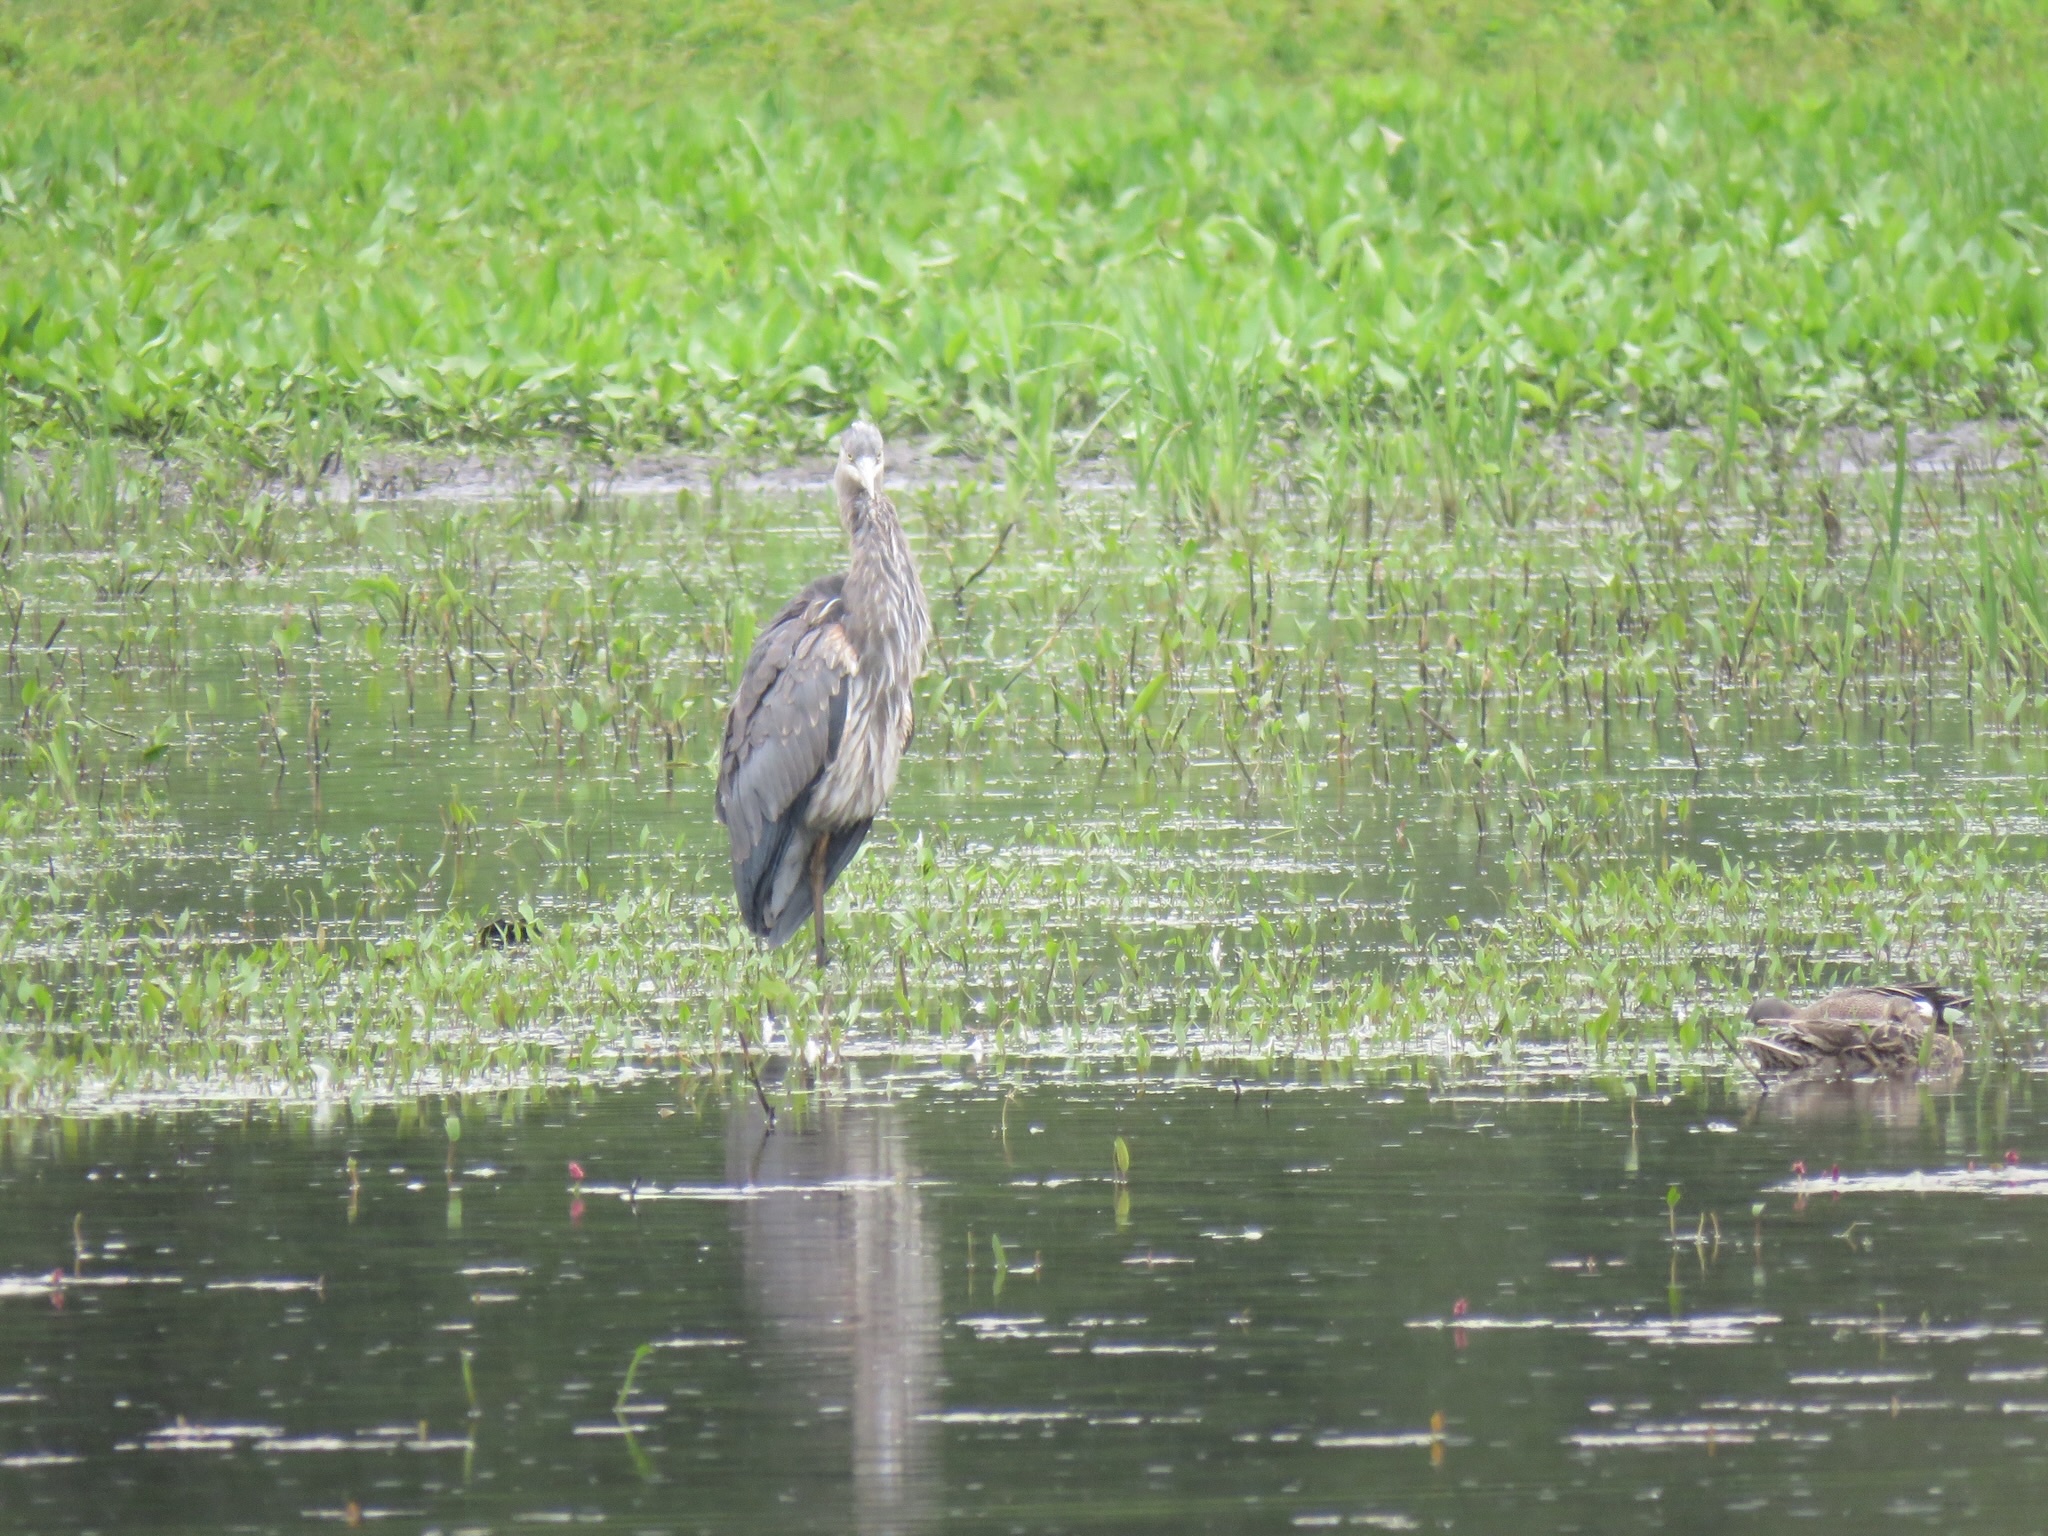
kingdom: Animalia
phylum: Chordata
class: Aves
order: Pelecaniformes
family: Ardeidae
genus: Ardea
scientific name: Ardea herodias
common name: Great blue heron
